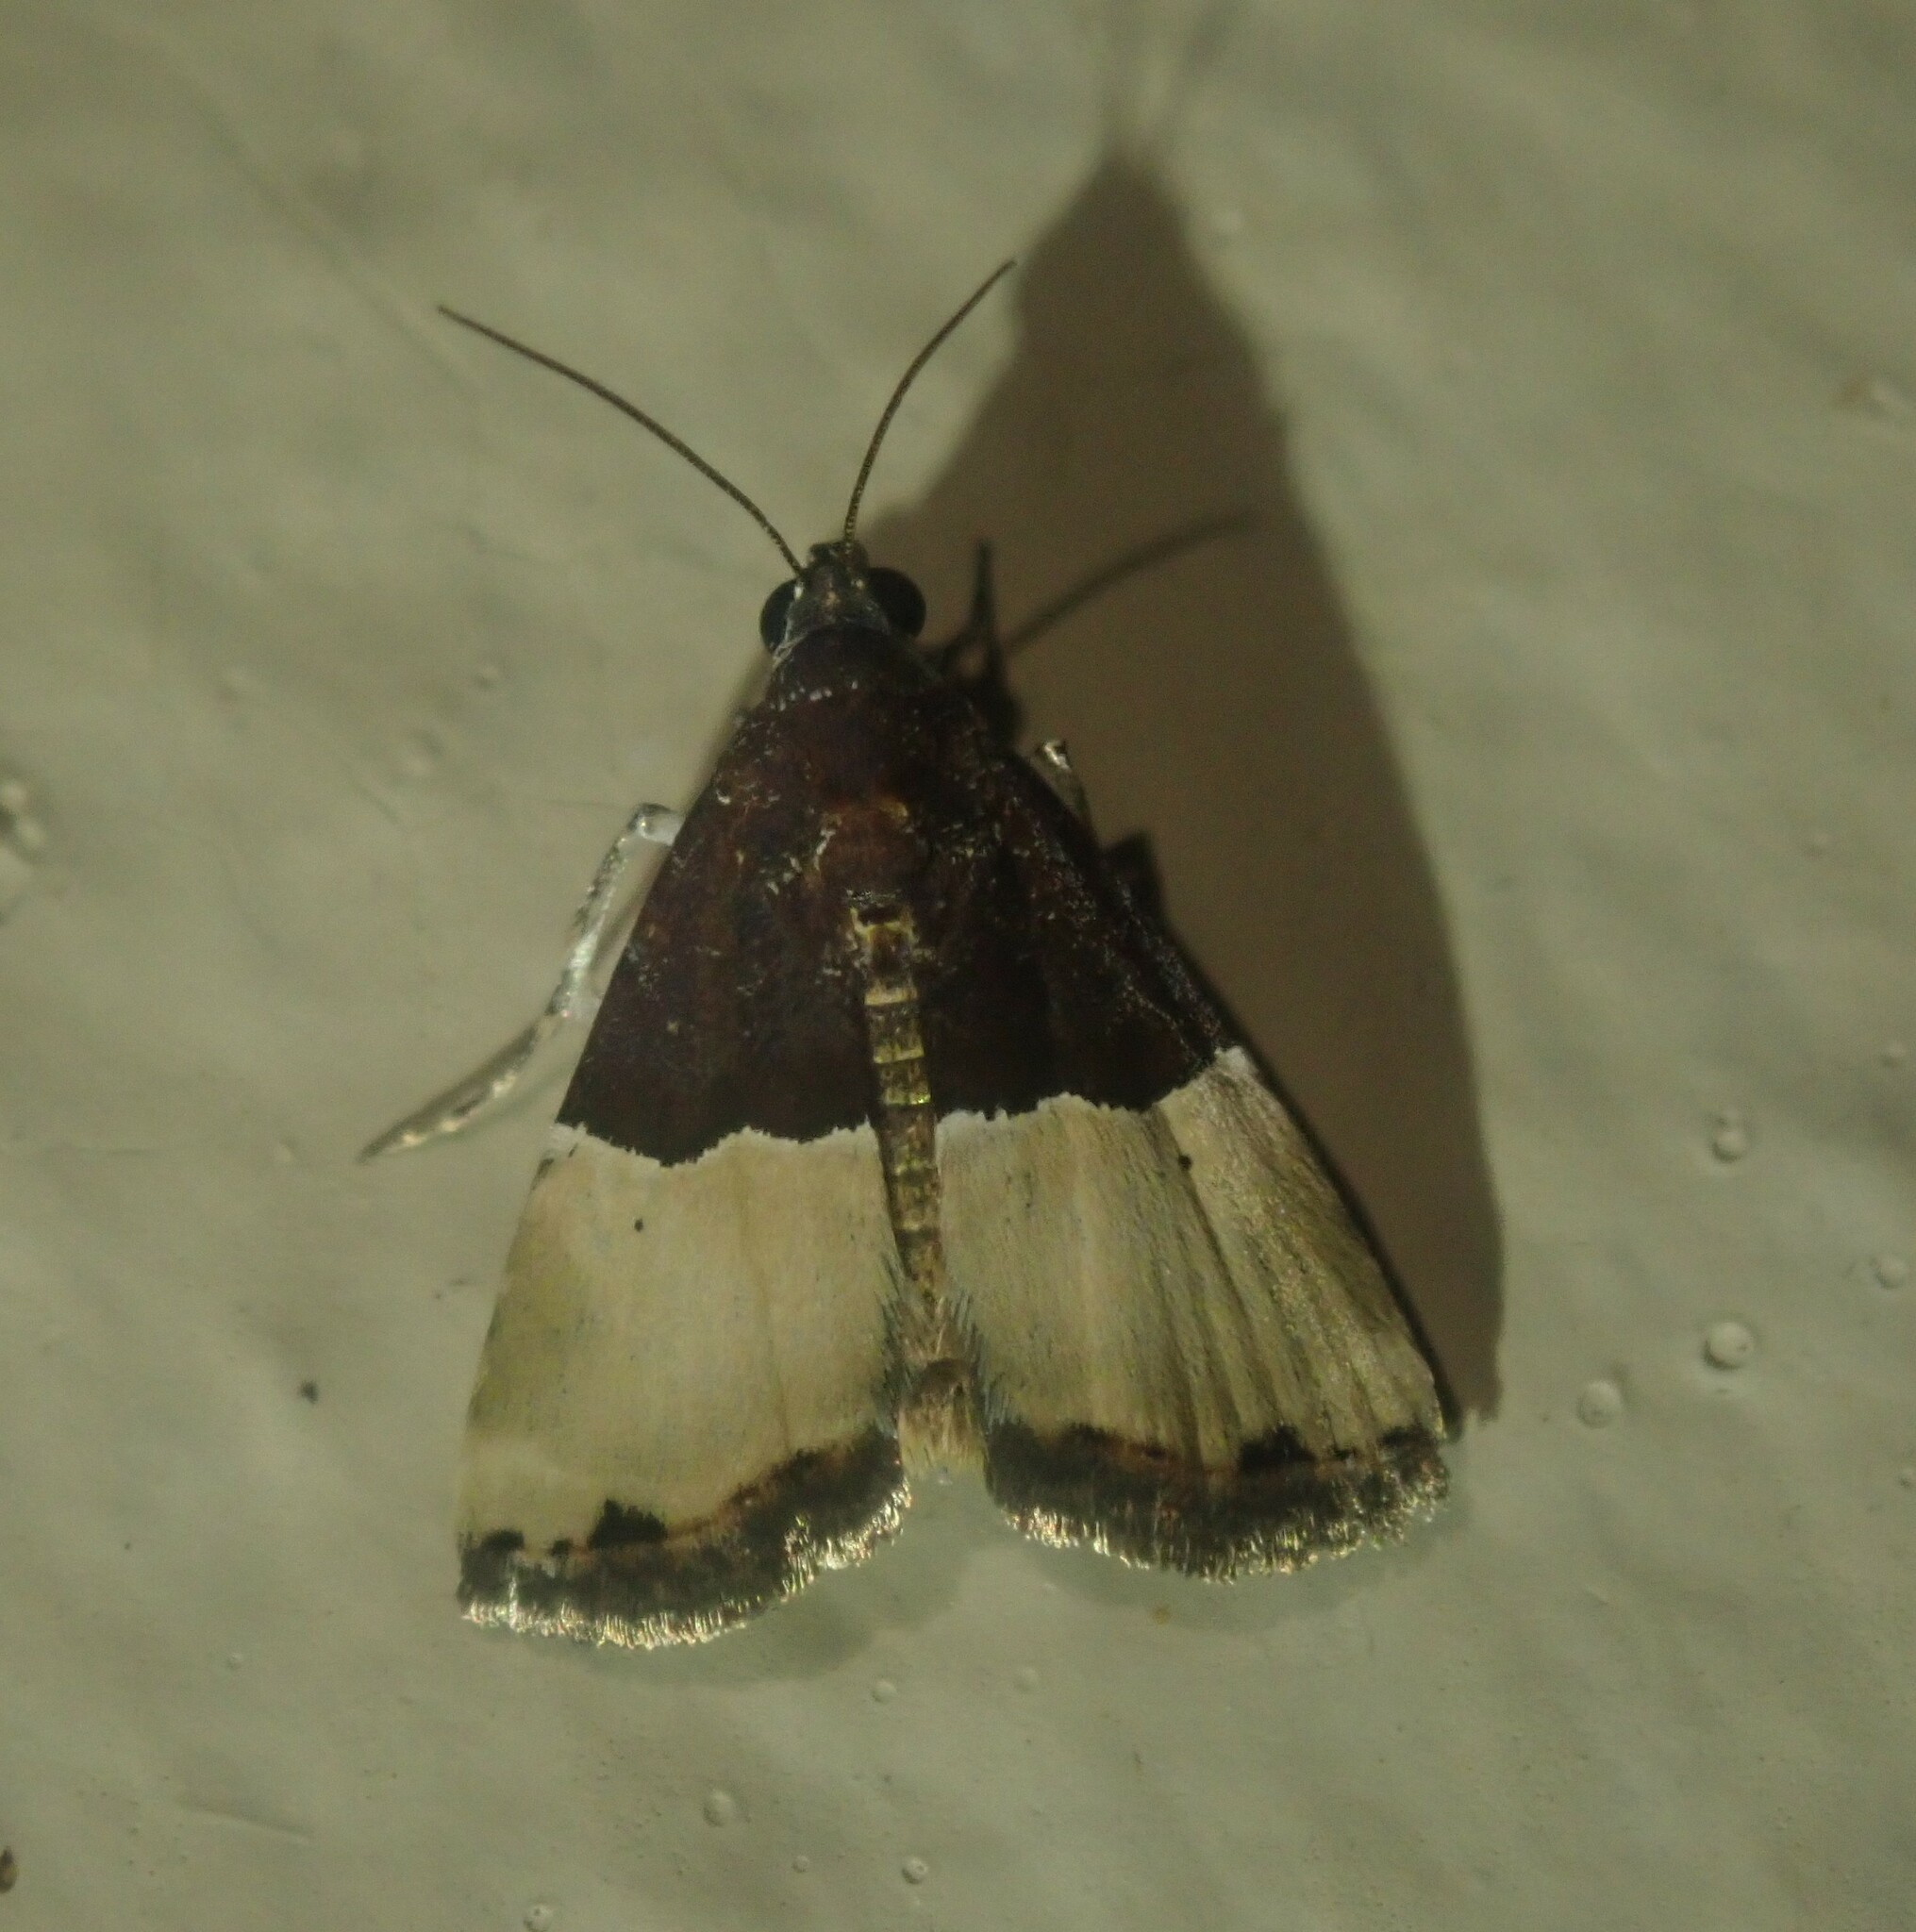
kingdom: Animalia
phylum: Arthropoda
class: Insecta
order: Lepidoptera
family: Noctuidae
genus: Ozarba
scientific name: Ozarba hemiochra
